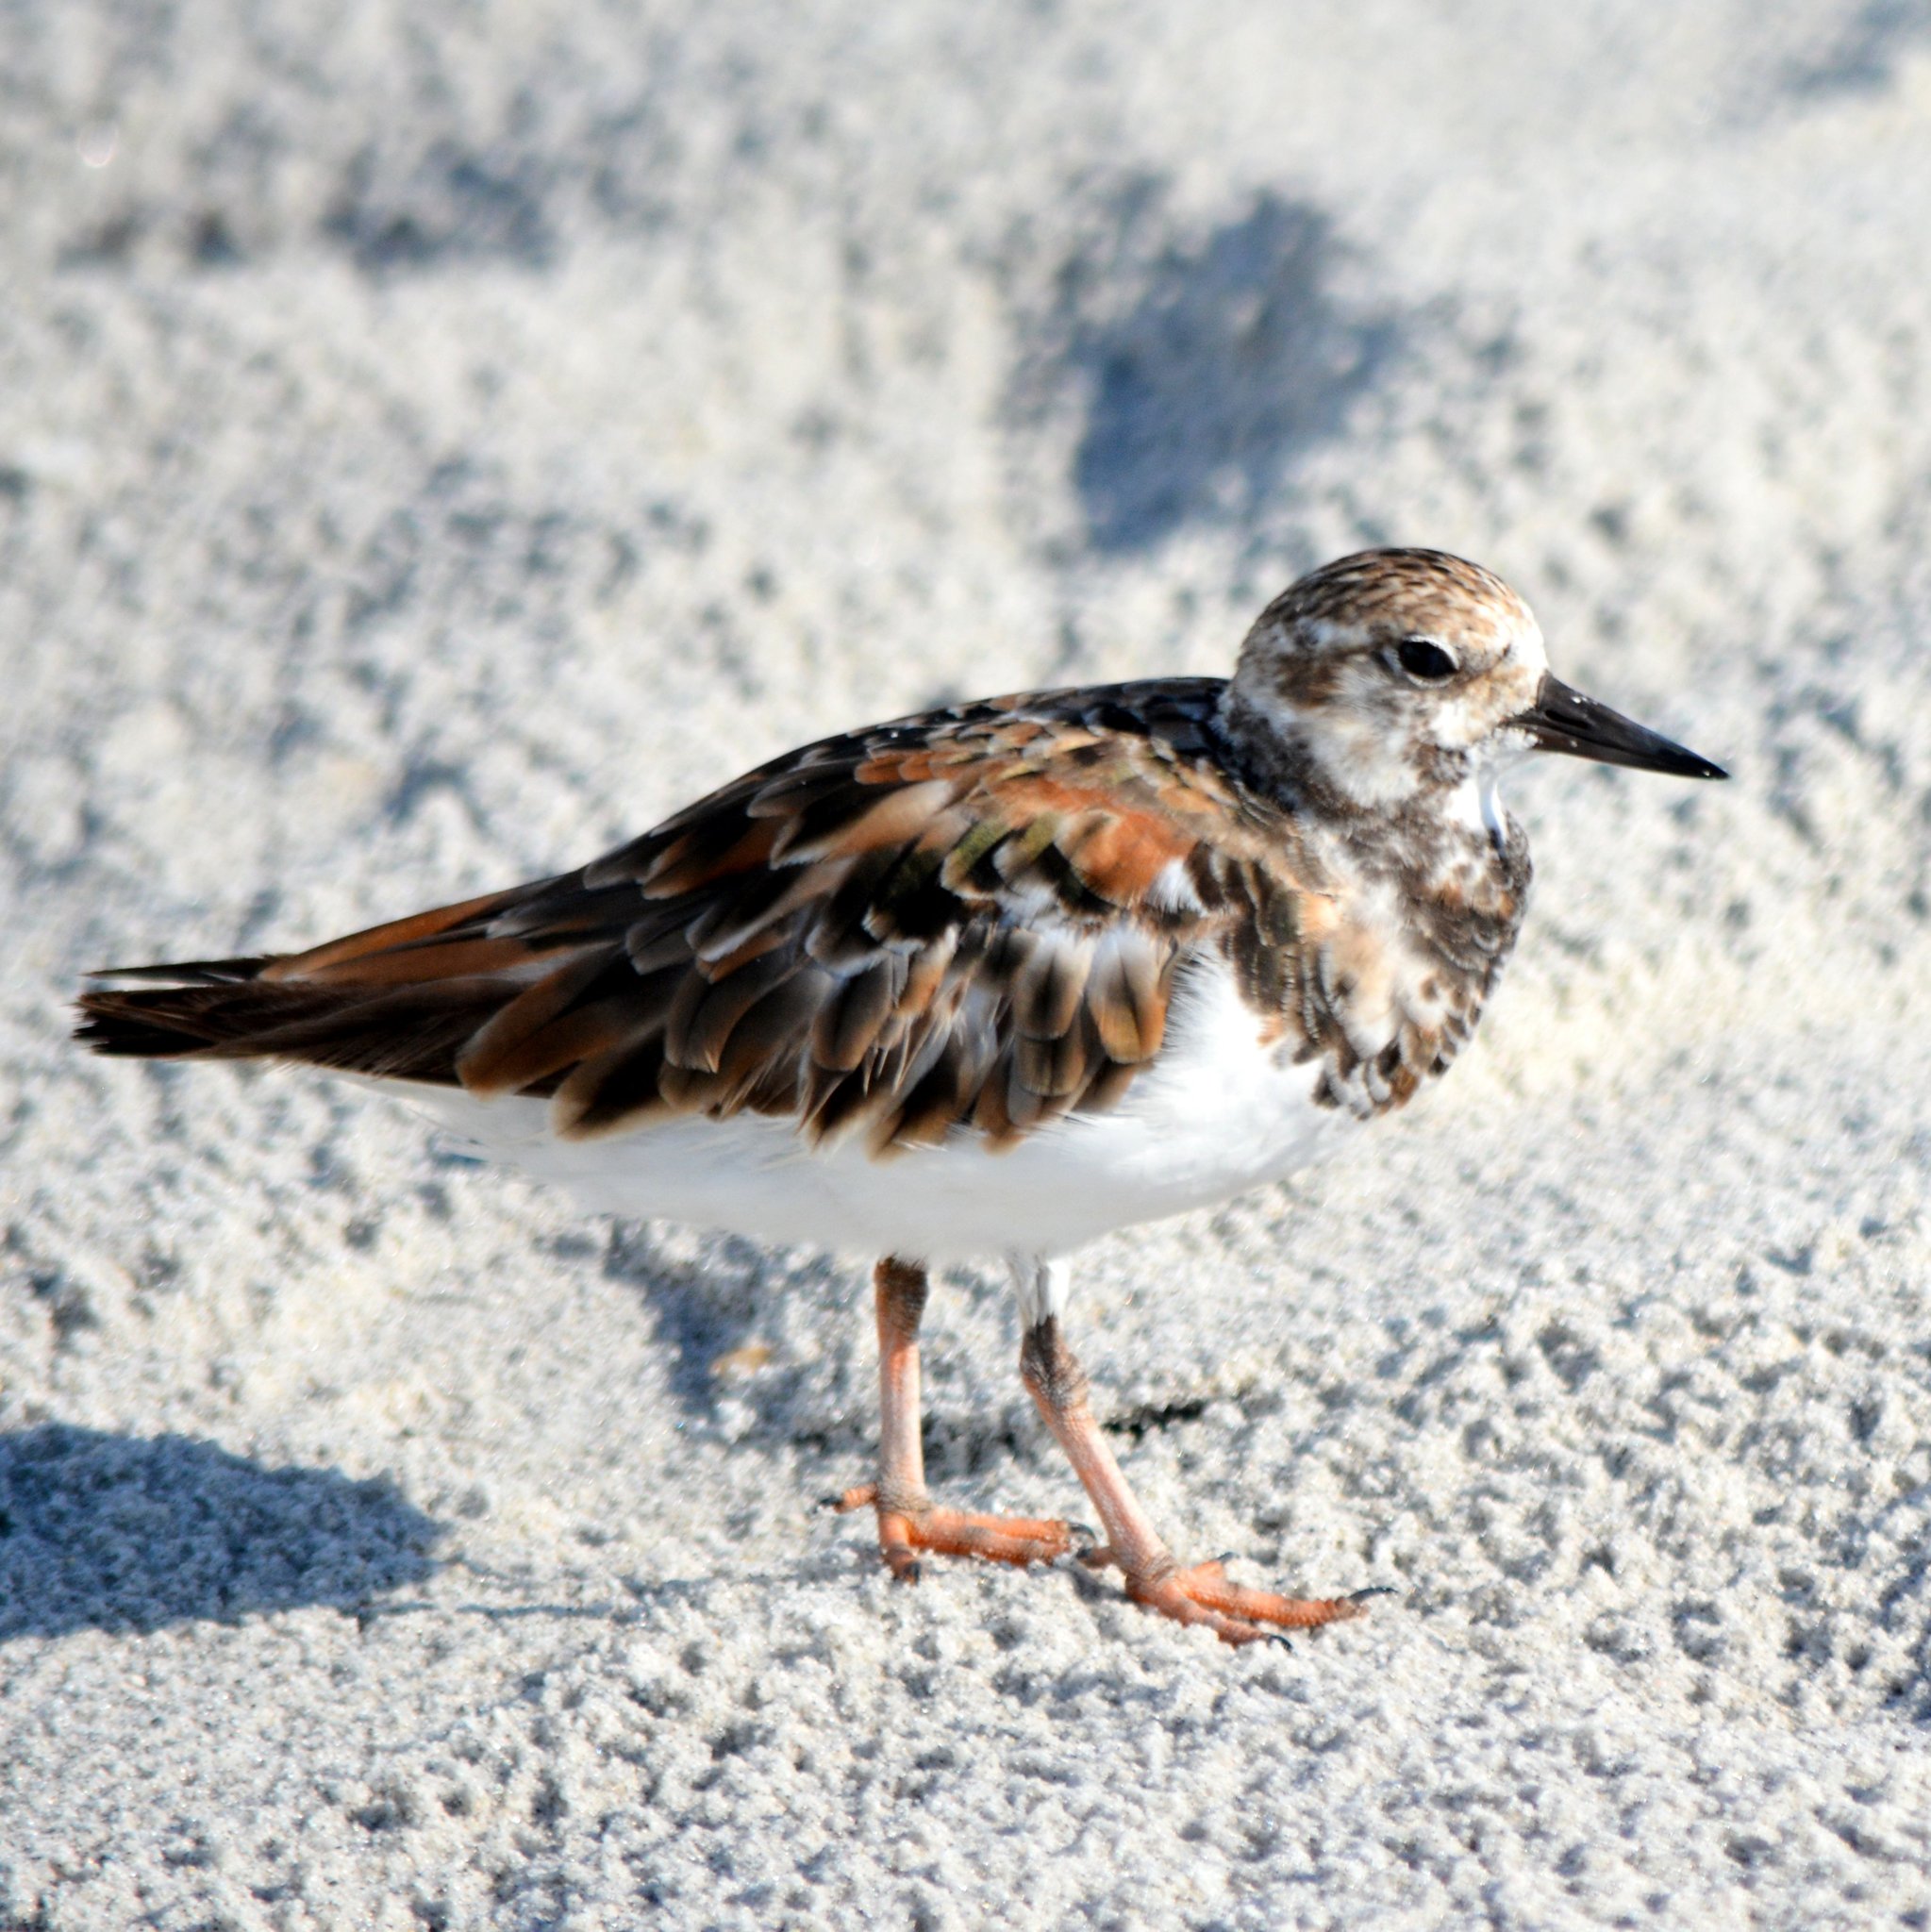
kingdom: Animalia
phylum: Chordata
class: Aves
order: Charadriiformes
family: Scolopacidae
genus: Arenaria
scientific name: Arenaria interpres
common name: Ruddy turnstone
